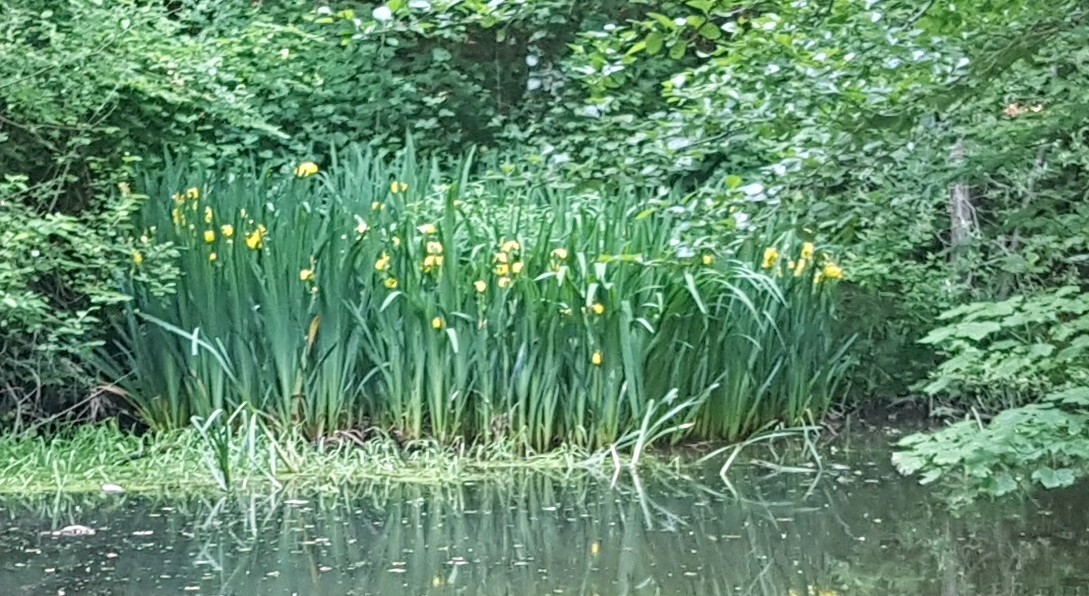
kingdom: Plantae
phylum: Tracheophyta
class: Liliopsida
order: Asparagales
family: Iridaceae
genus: Iris
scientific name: Iris pseudacorus
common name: Yellow flag
